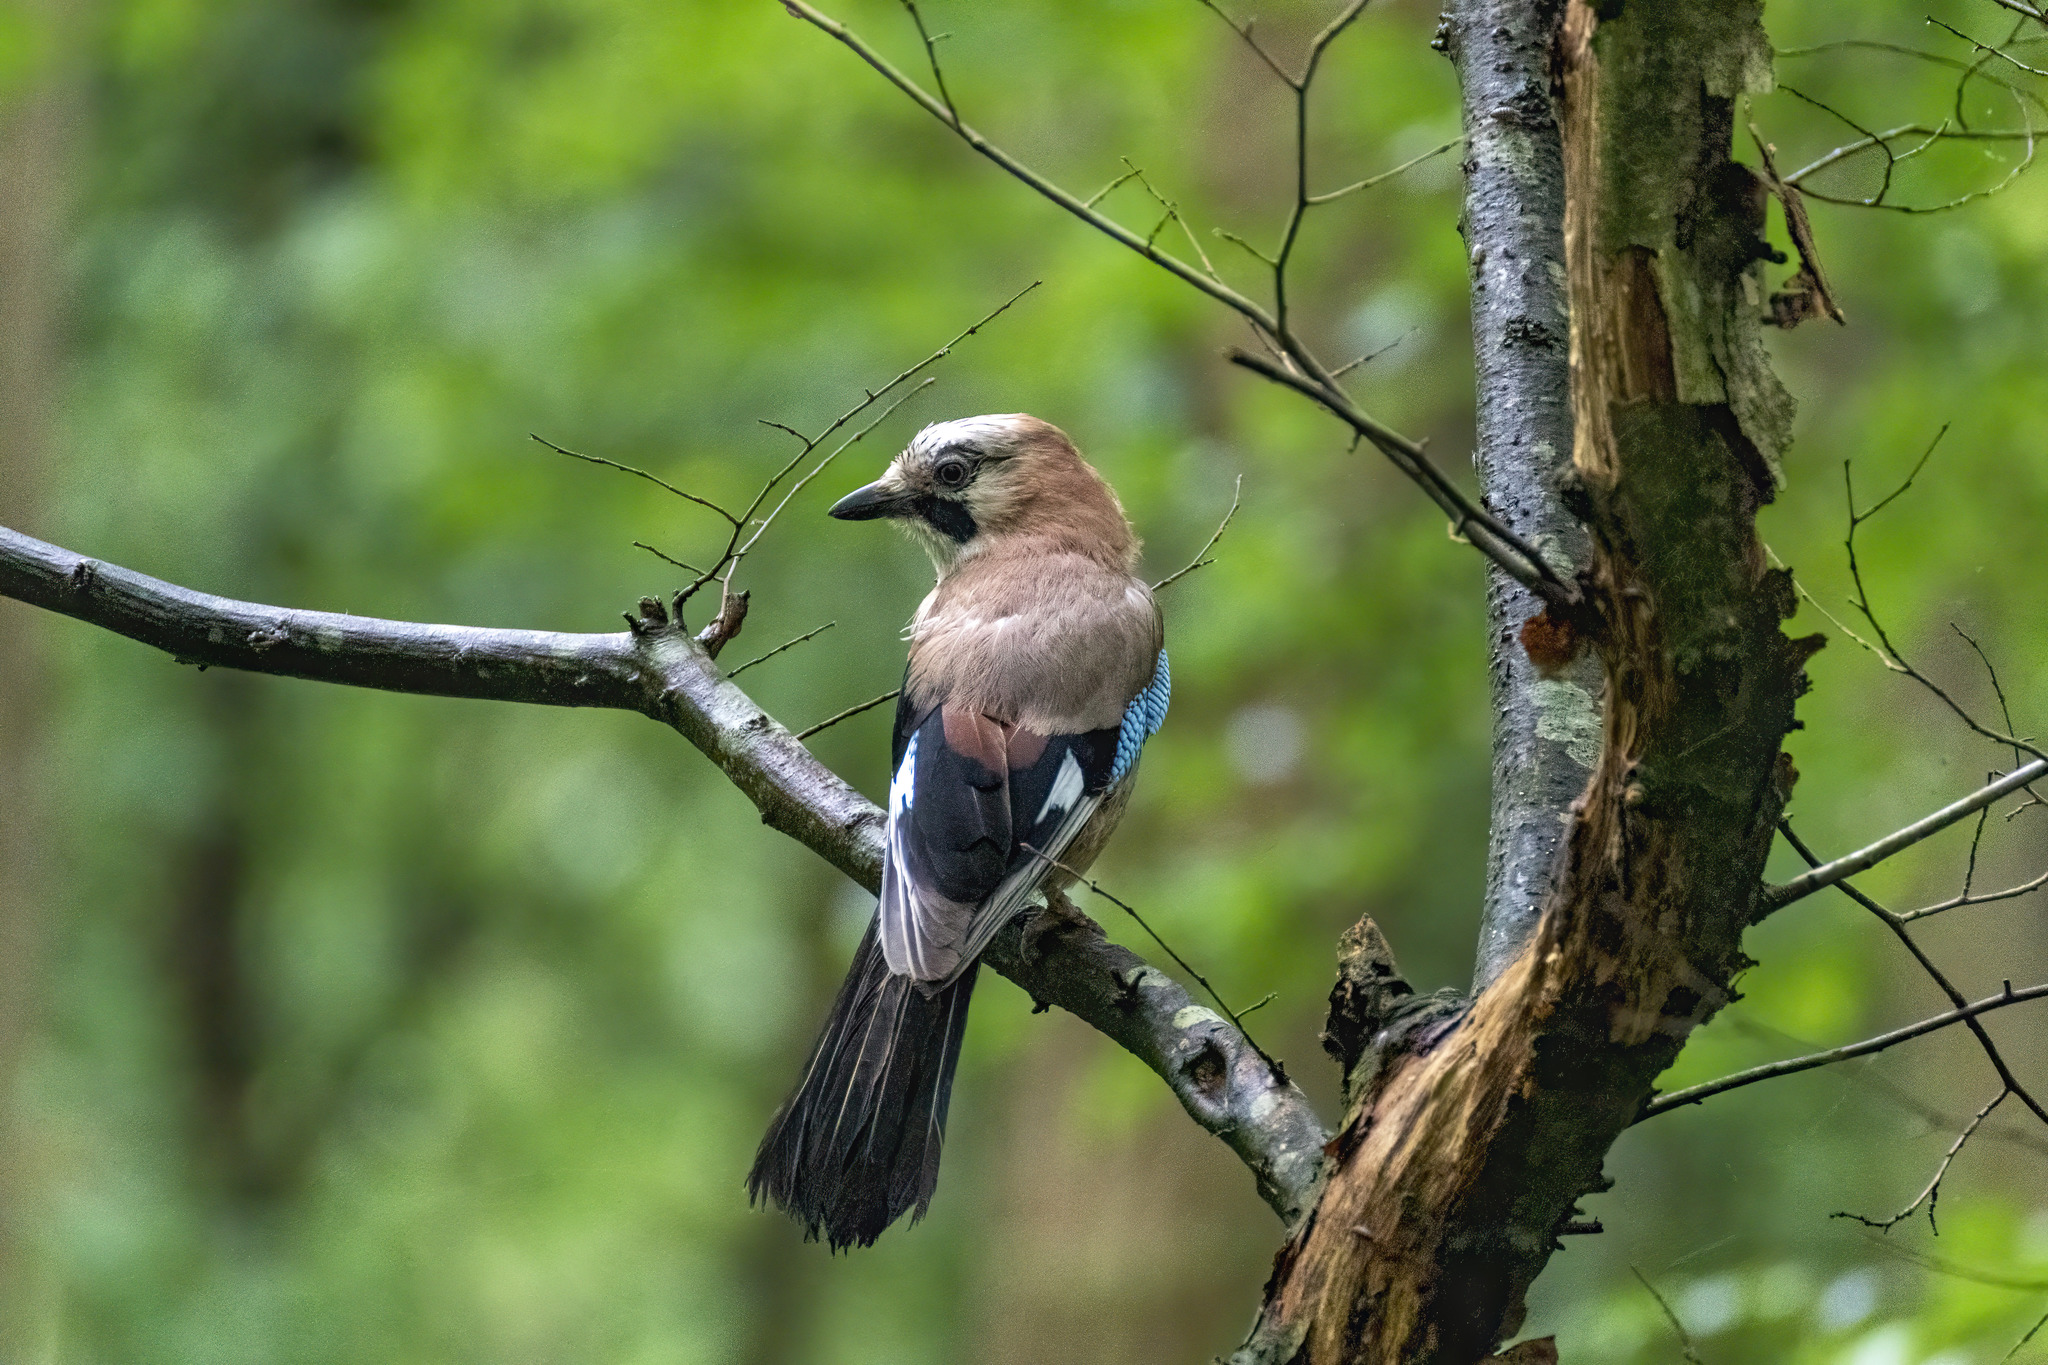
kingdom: Animalia
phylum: Chordata
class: Aves
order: Passeriformes
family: Corvidae
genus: Garrulus
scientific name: Garrulus glandarius
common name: Eurasian jay
